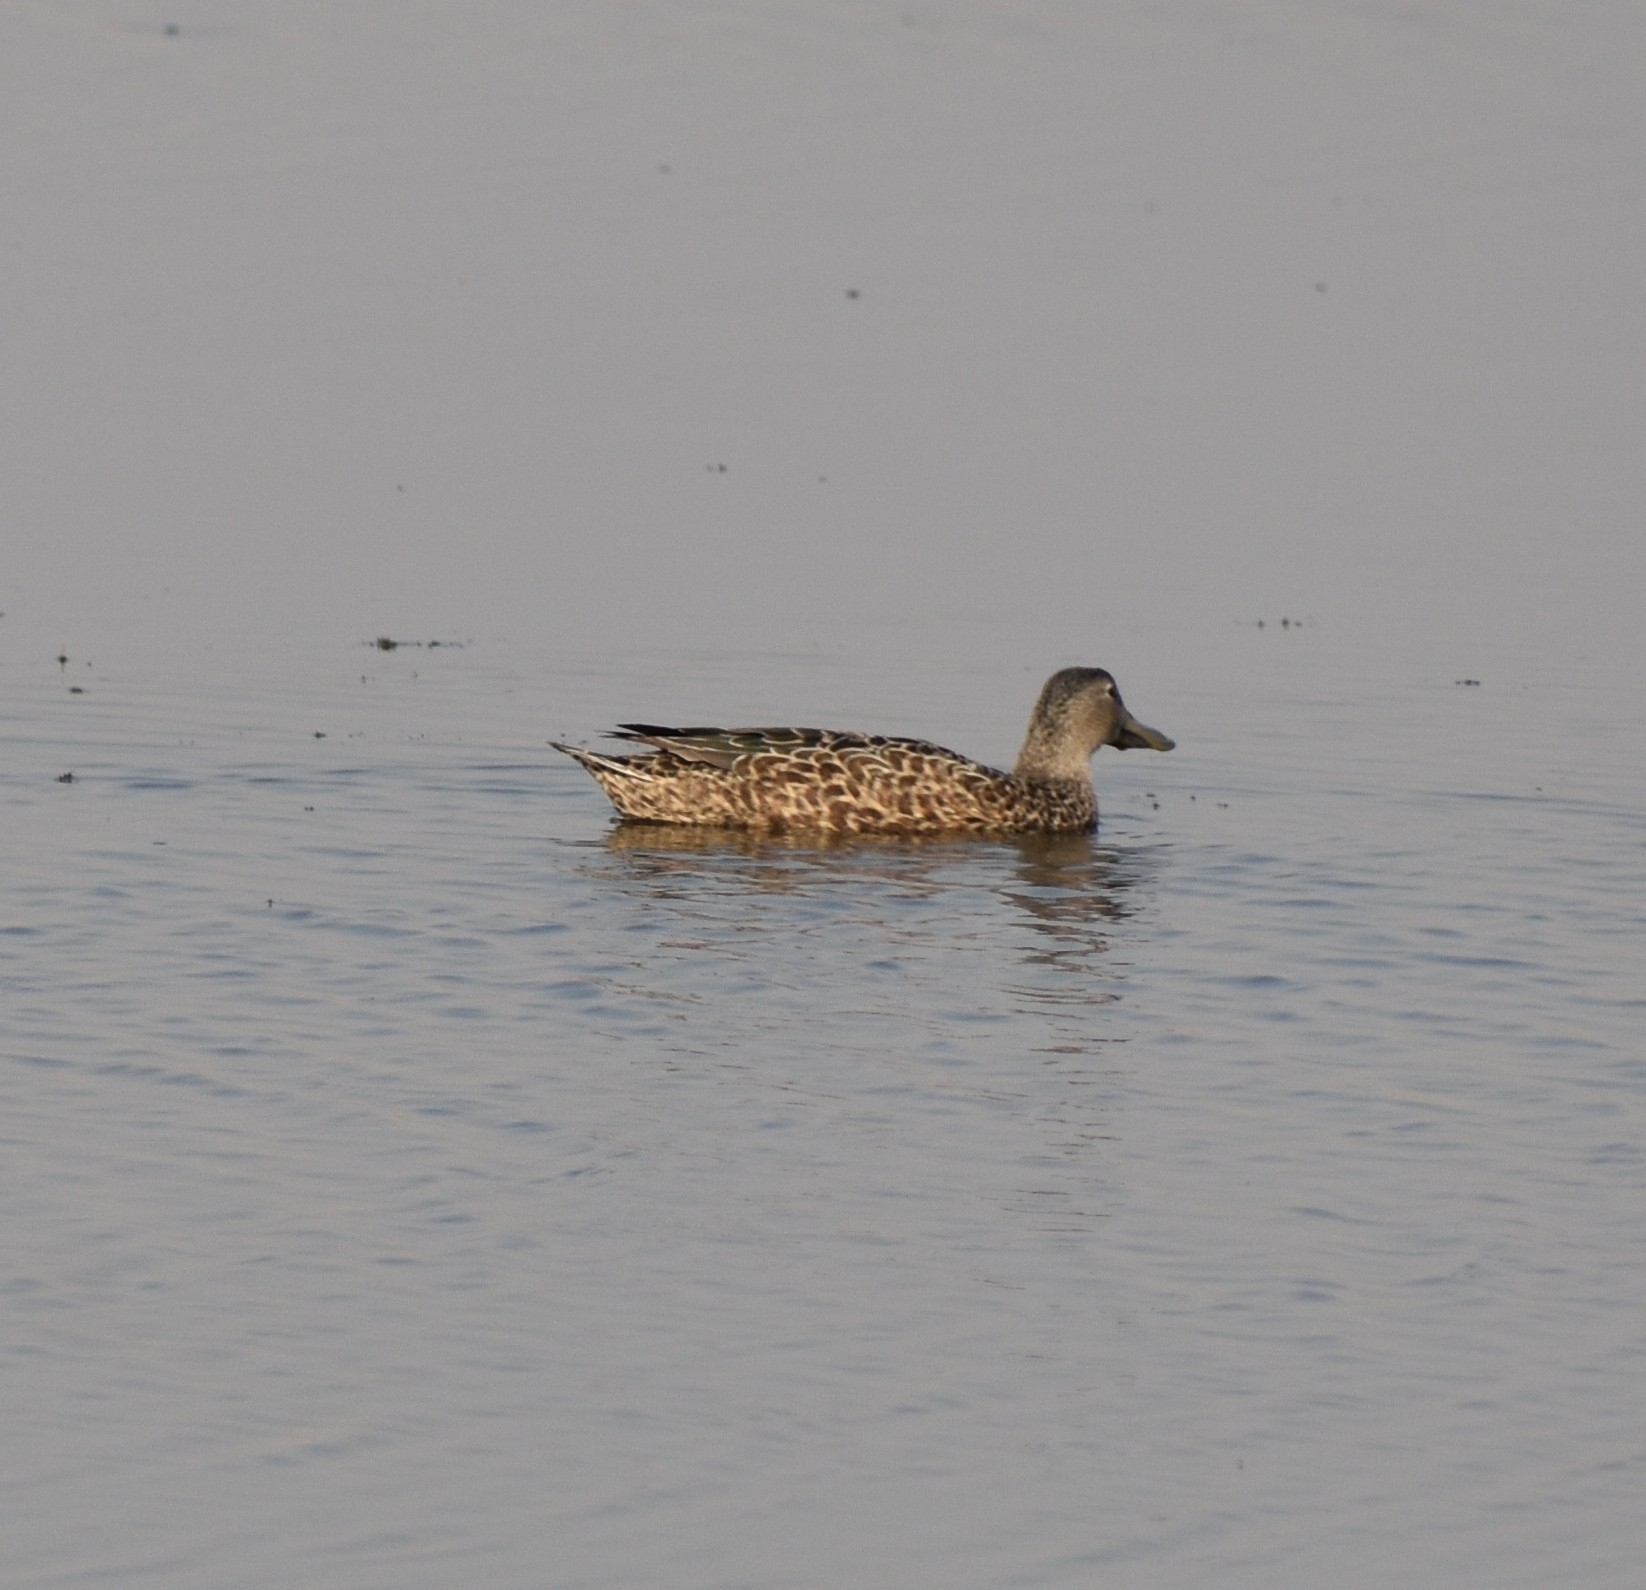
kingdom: Animalia
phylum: Chordata
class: Aves
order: Anseriformes
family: Anatidae
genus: Spatula
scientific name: Spatula smithii
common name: Cape shoveler
